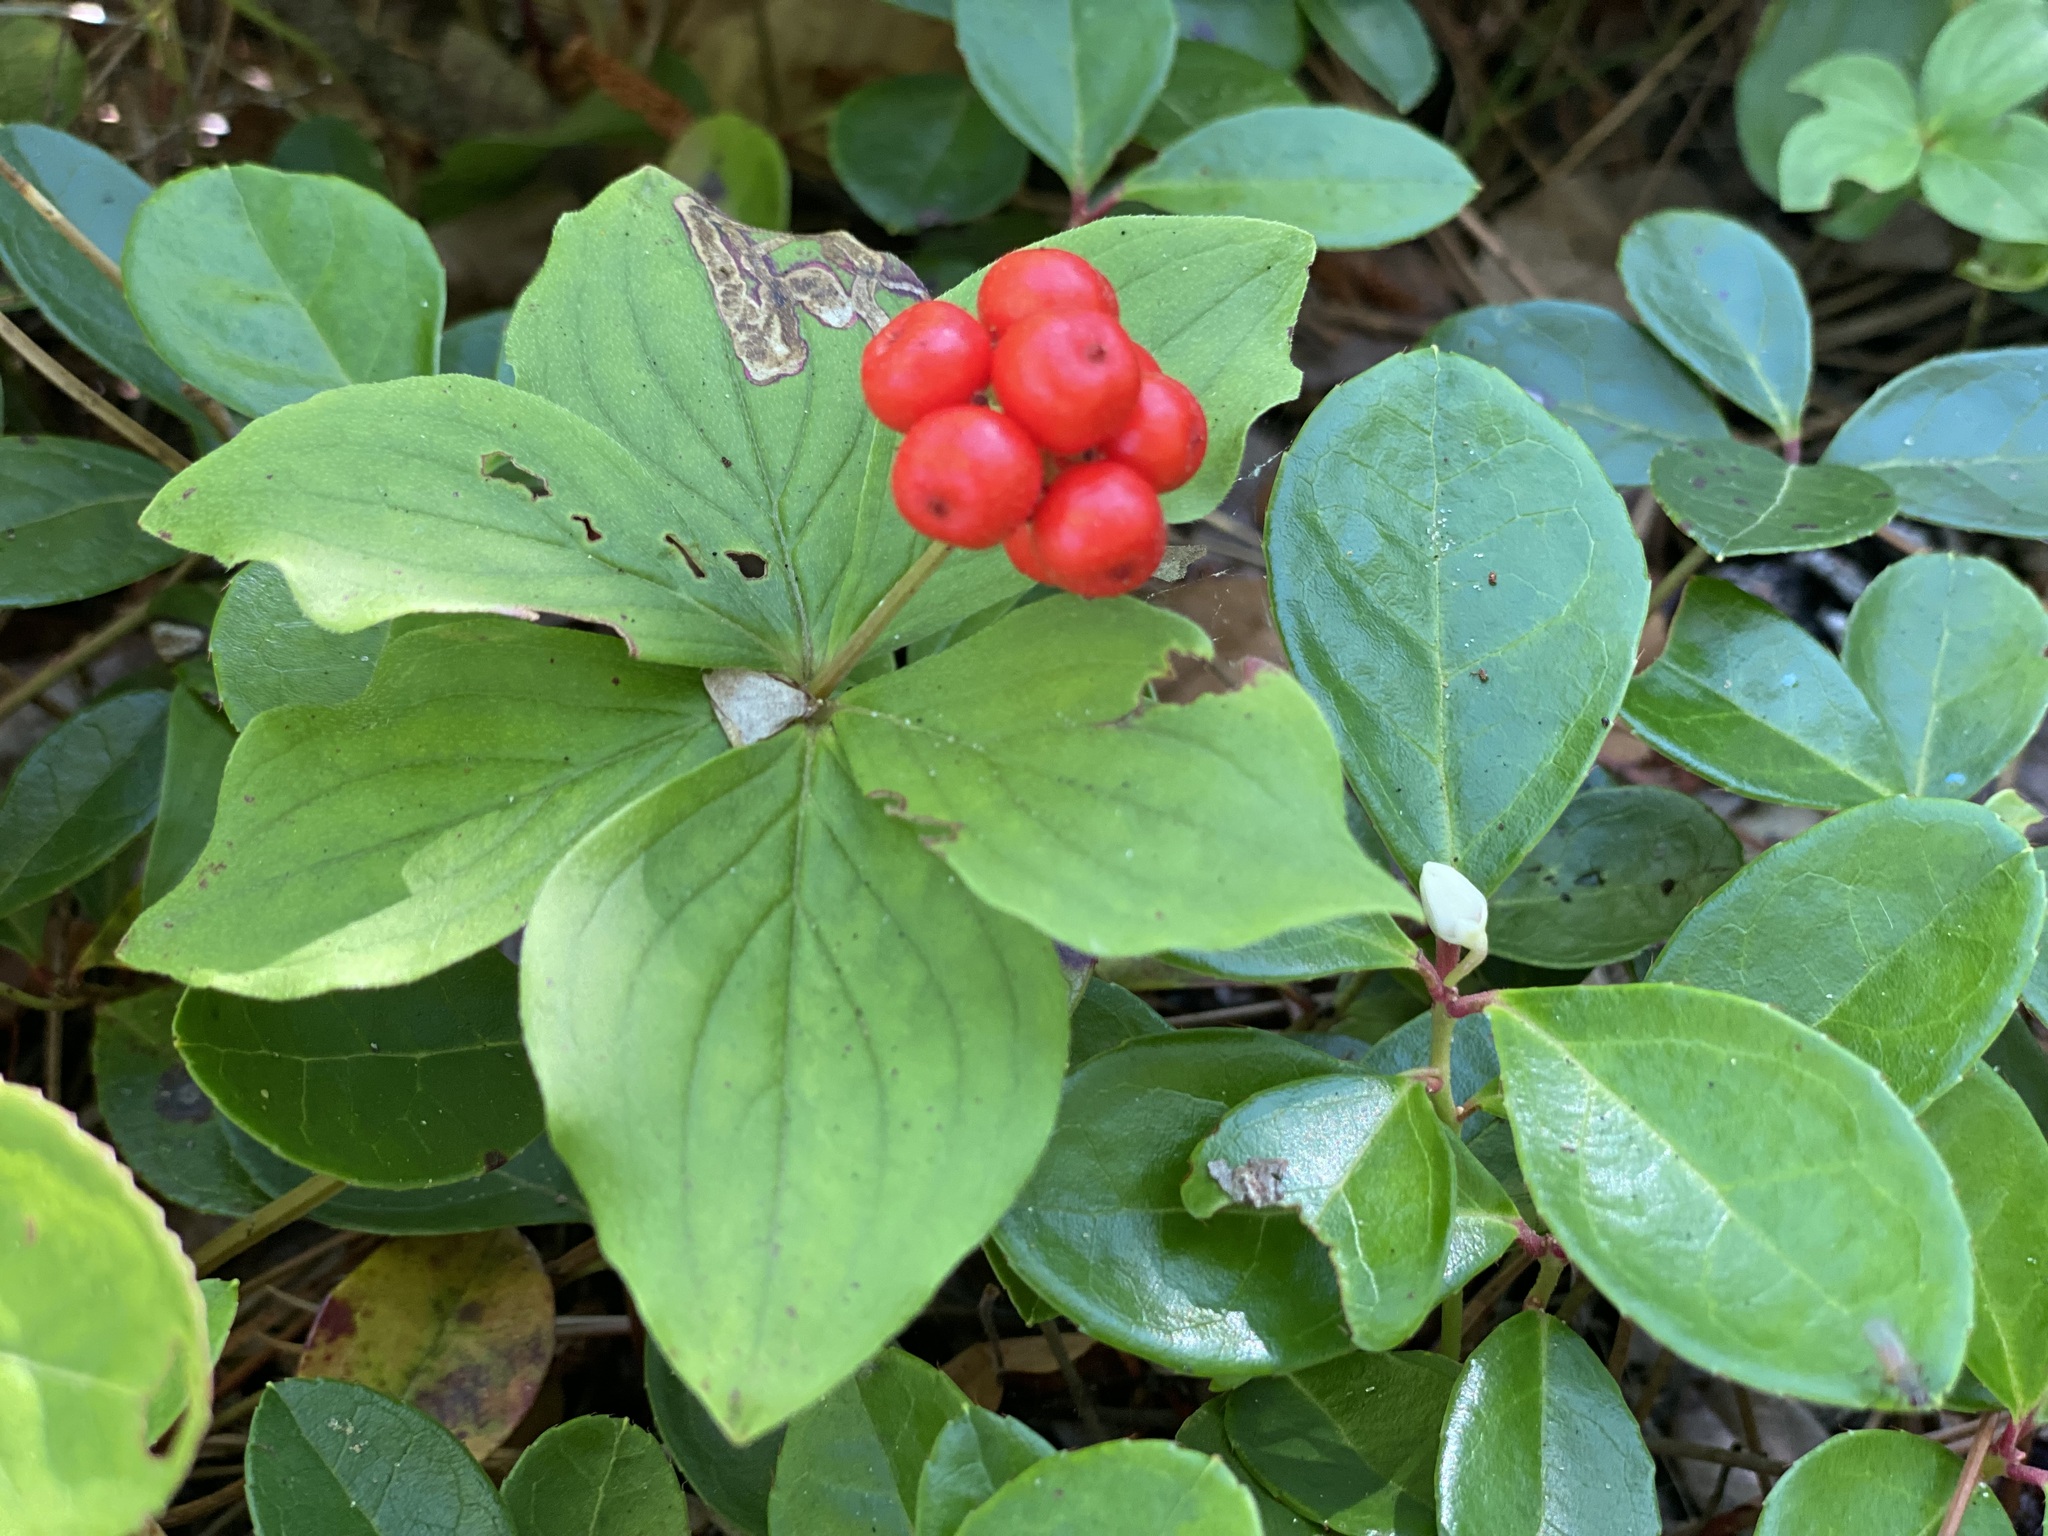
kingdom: Plantae
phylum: Tracheophyta
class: Magnoliopsida
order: Cornales
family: Cornaceae
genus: Cornus
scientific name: Cornus canadensis
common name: Creeping dogwood
